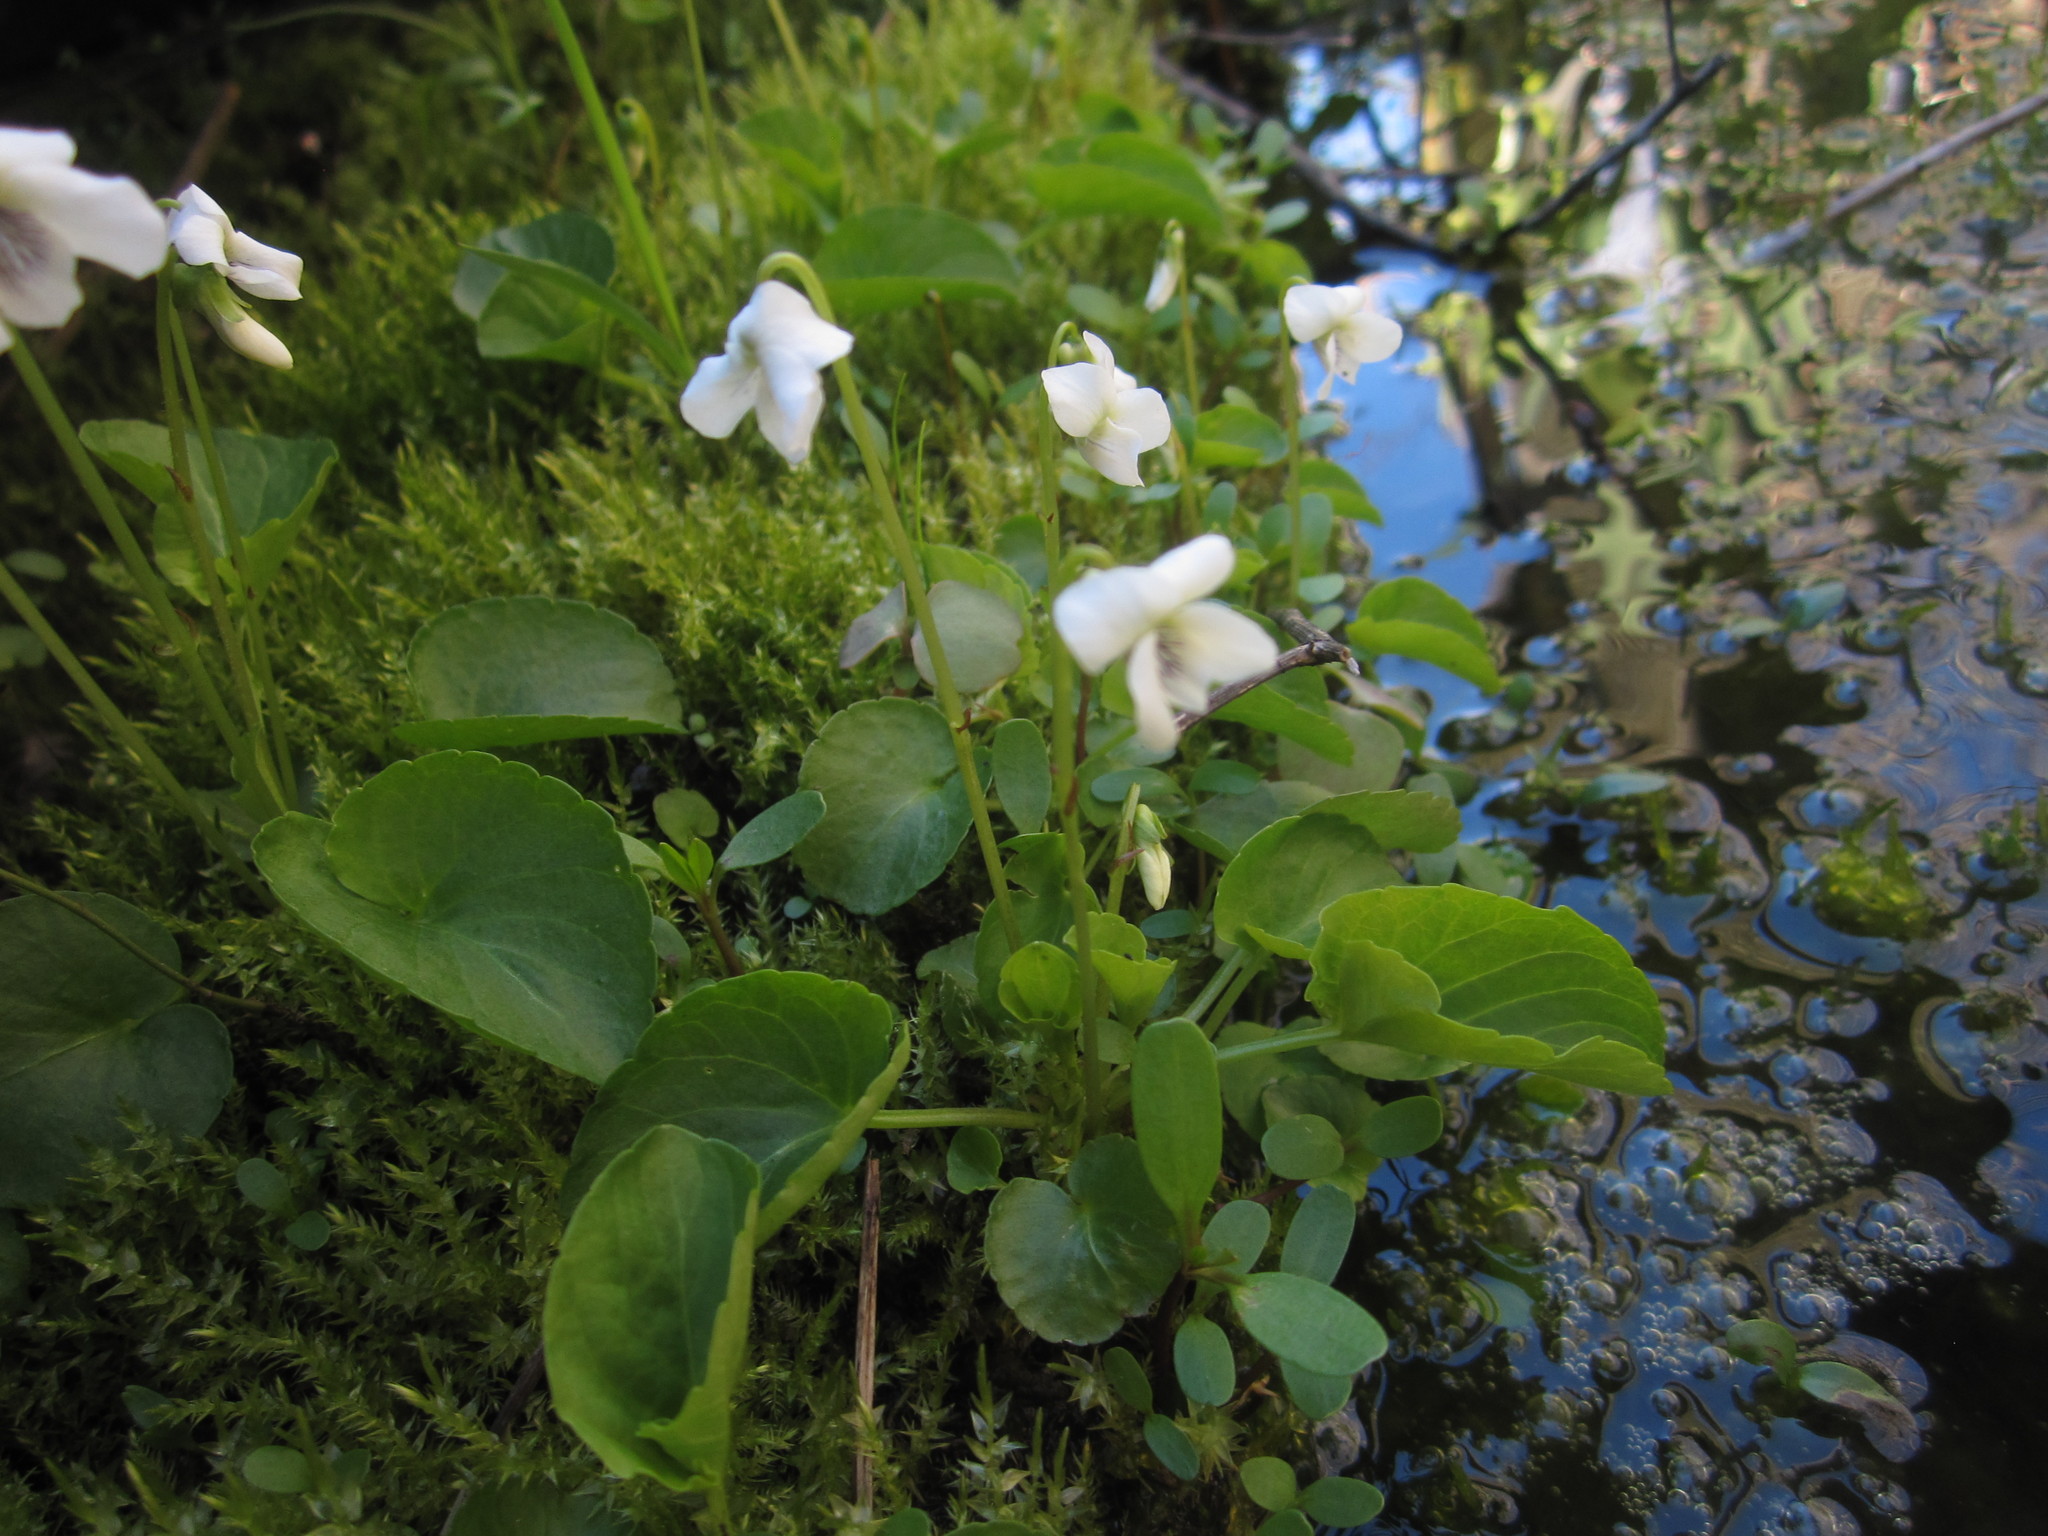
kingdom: Plantae
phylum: Tracheophyta
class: Magnoliopsida
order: Malpighiales
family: Violaceae
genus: Viola
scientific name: Viola minuscula
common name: Northern white violet
